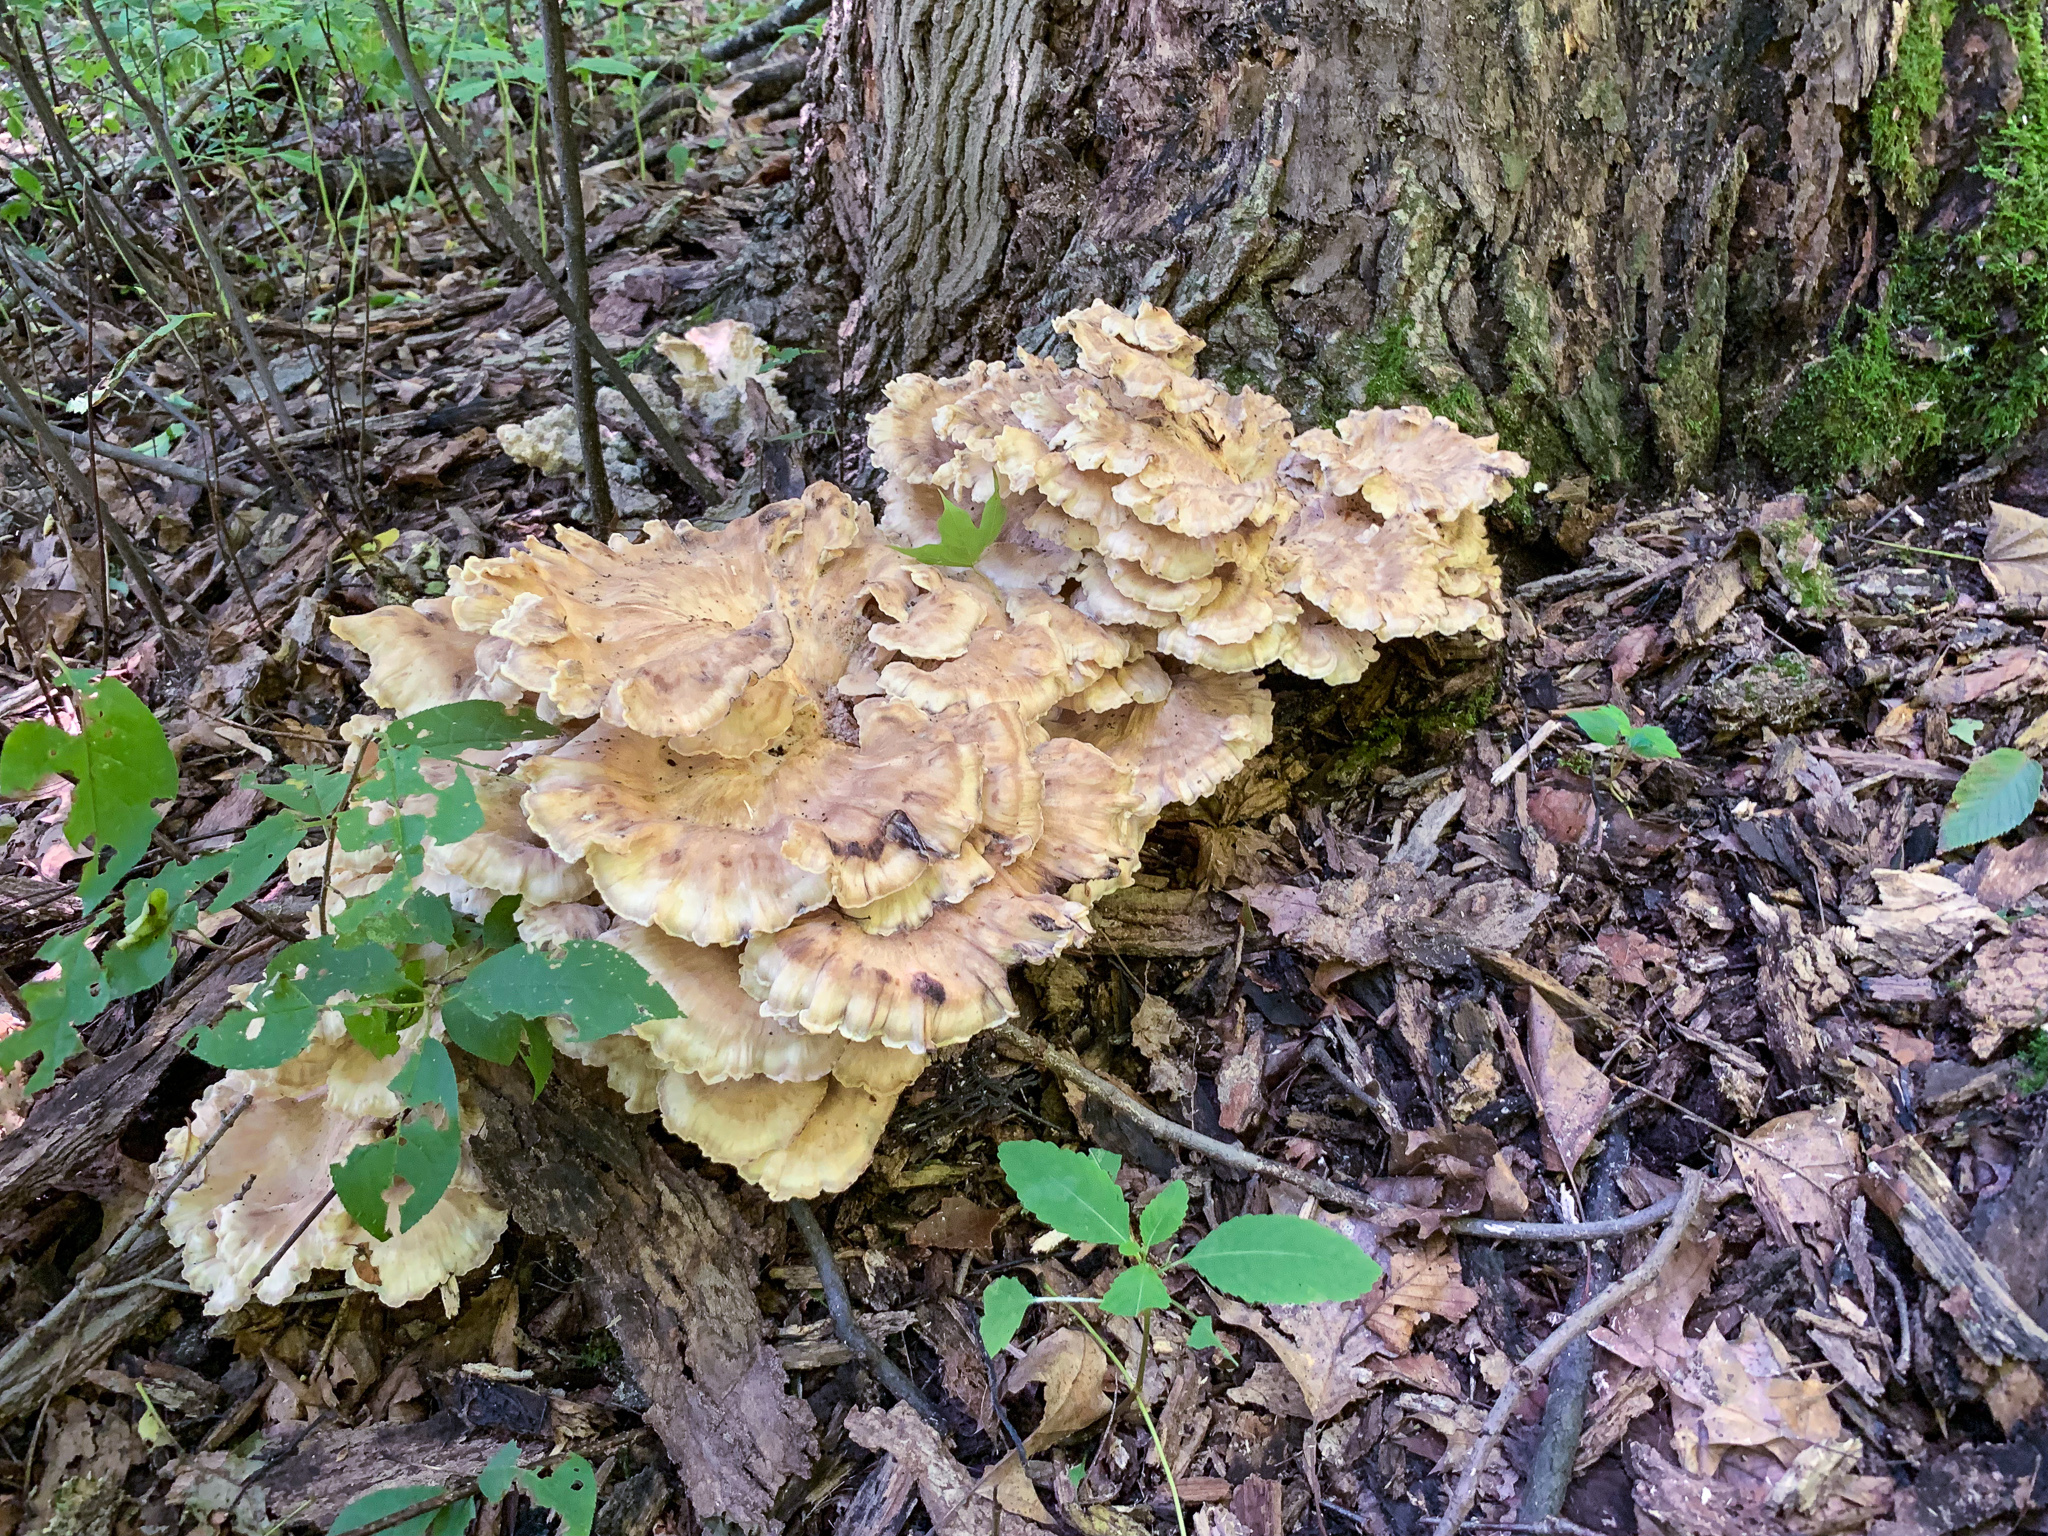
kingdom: Fungi
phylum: Basidiomycota
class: Agaricomycetes
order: Polyporales
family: Meripilaceae
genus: Meripilus
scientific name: Meripilus sumstinei
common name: Black-staining polypore
